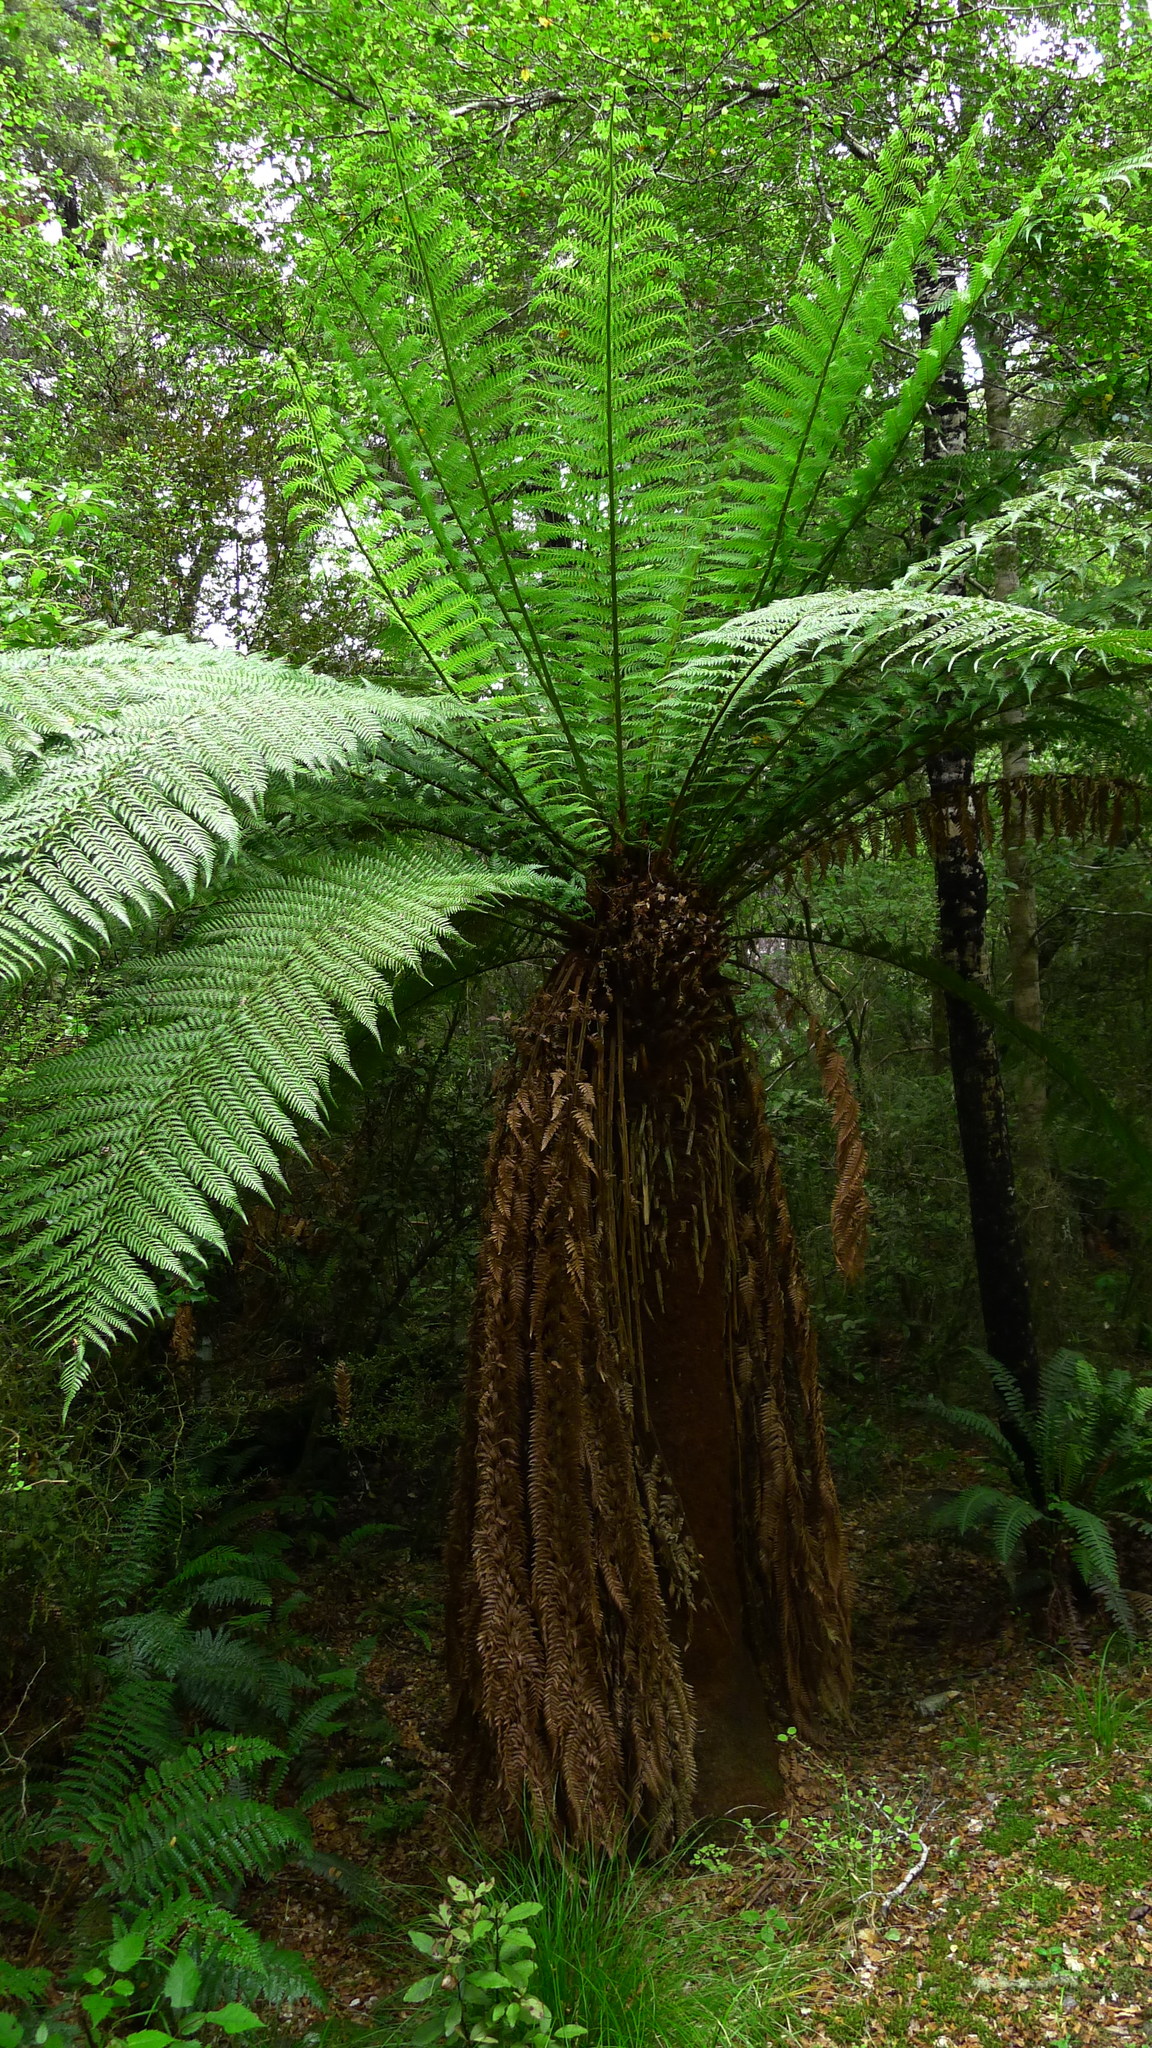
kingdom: Plantae
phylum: Tracheophyta
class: Polypodiopsida
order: Cyatheales
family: Dicksoniaceae
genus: Dicksonia
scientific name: Dicksonia fibrosa
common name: Golden tree fern
